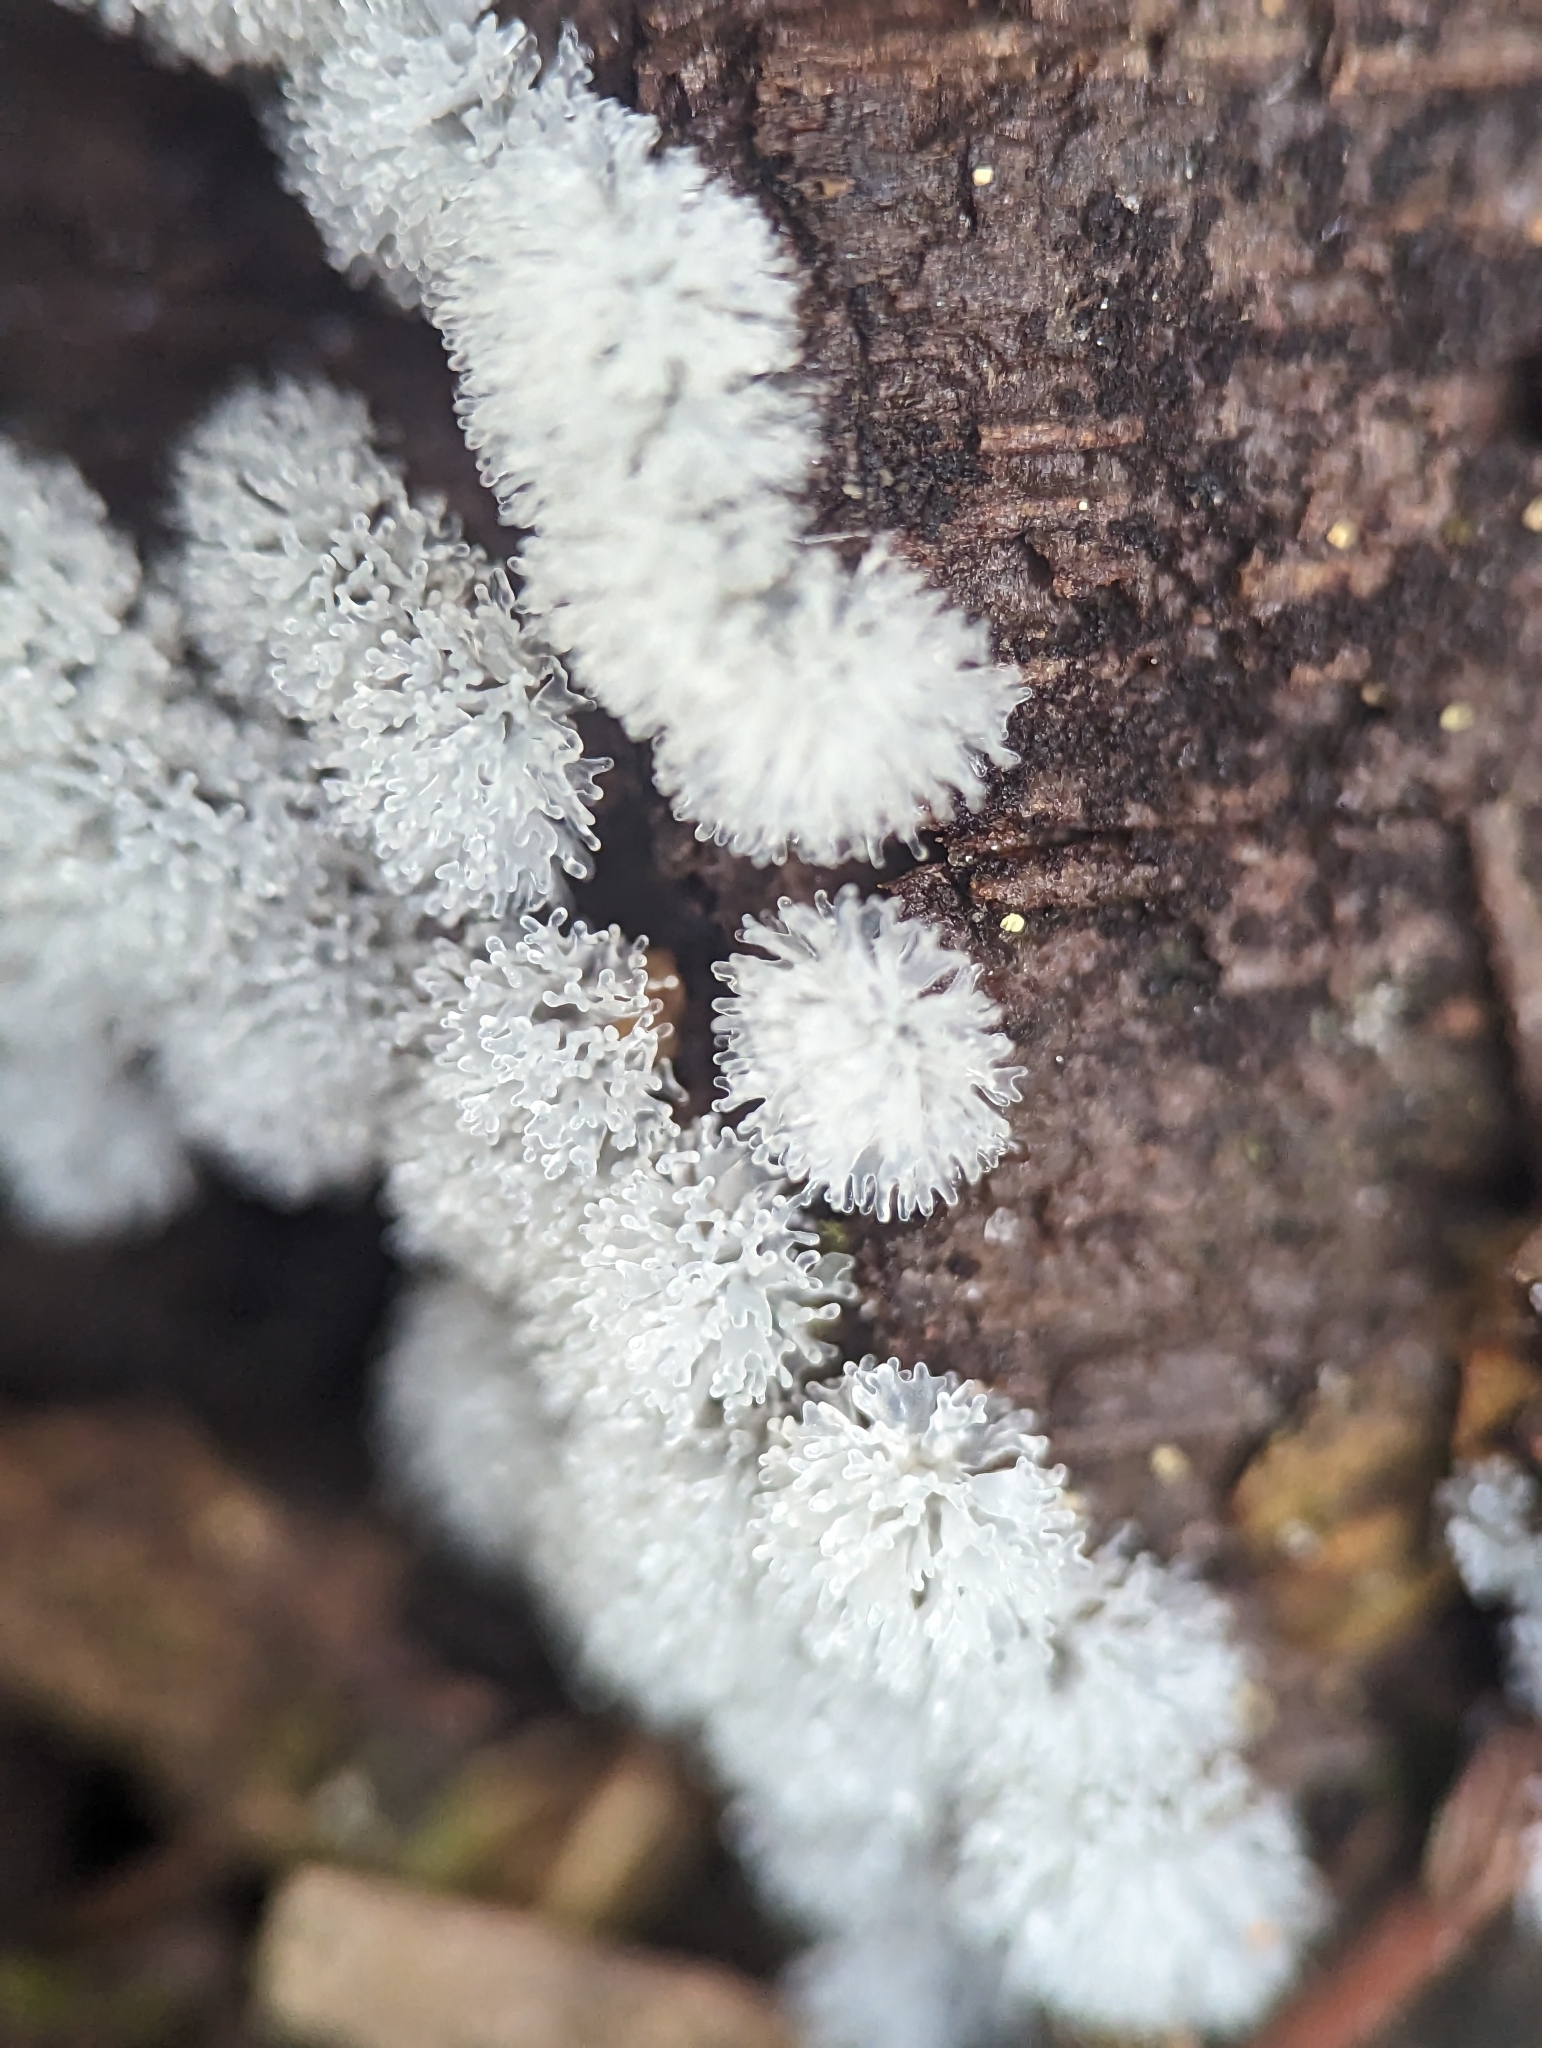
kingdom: Protozoa
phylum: Mycetozoa
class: Protosteliomycetes
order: Ceratiomyxales
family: Ceratiomyxaceae
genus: Ceratiomyxa
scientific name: Ceratiomyxa fruticulosa
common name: Honeycomb coral slime mold
